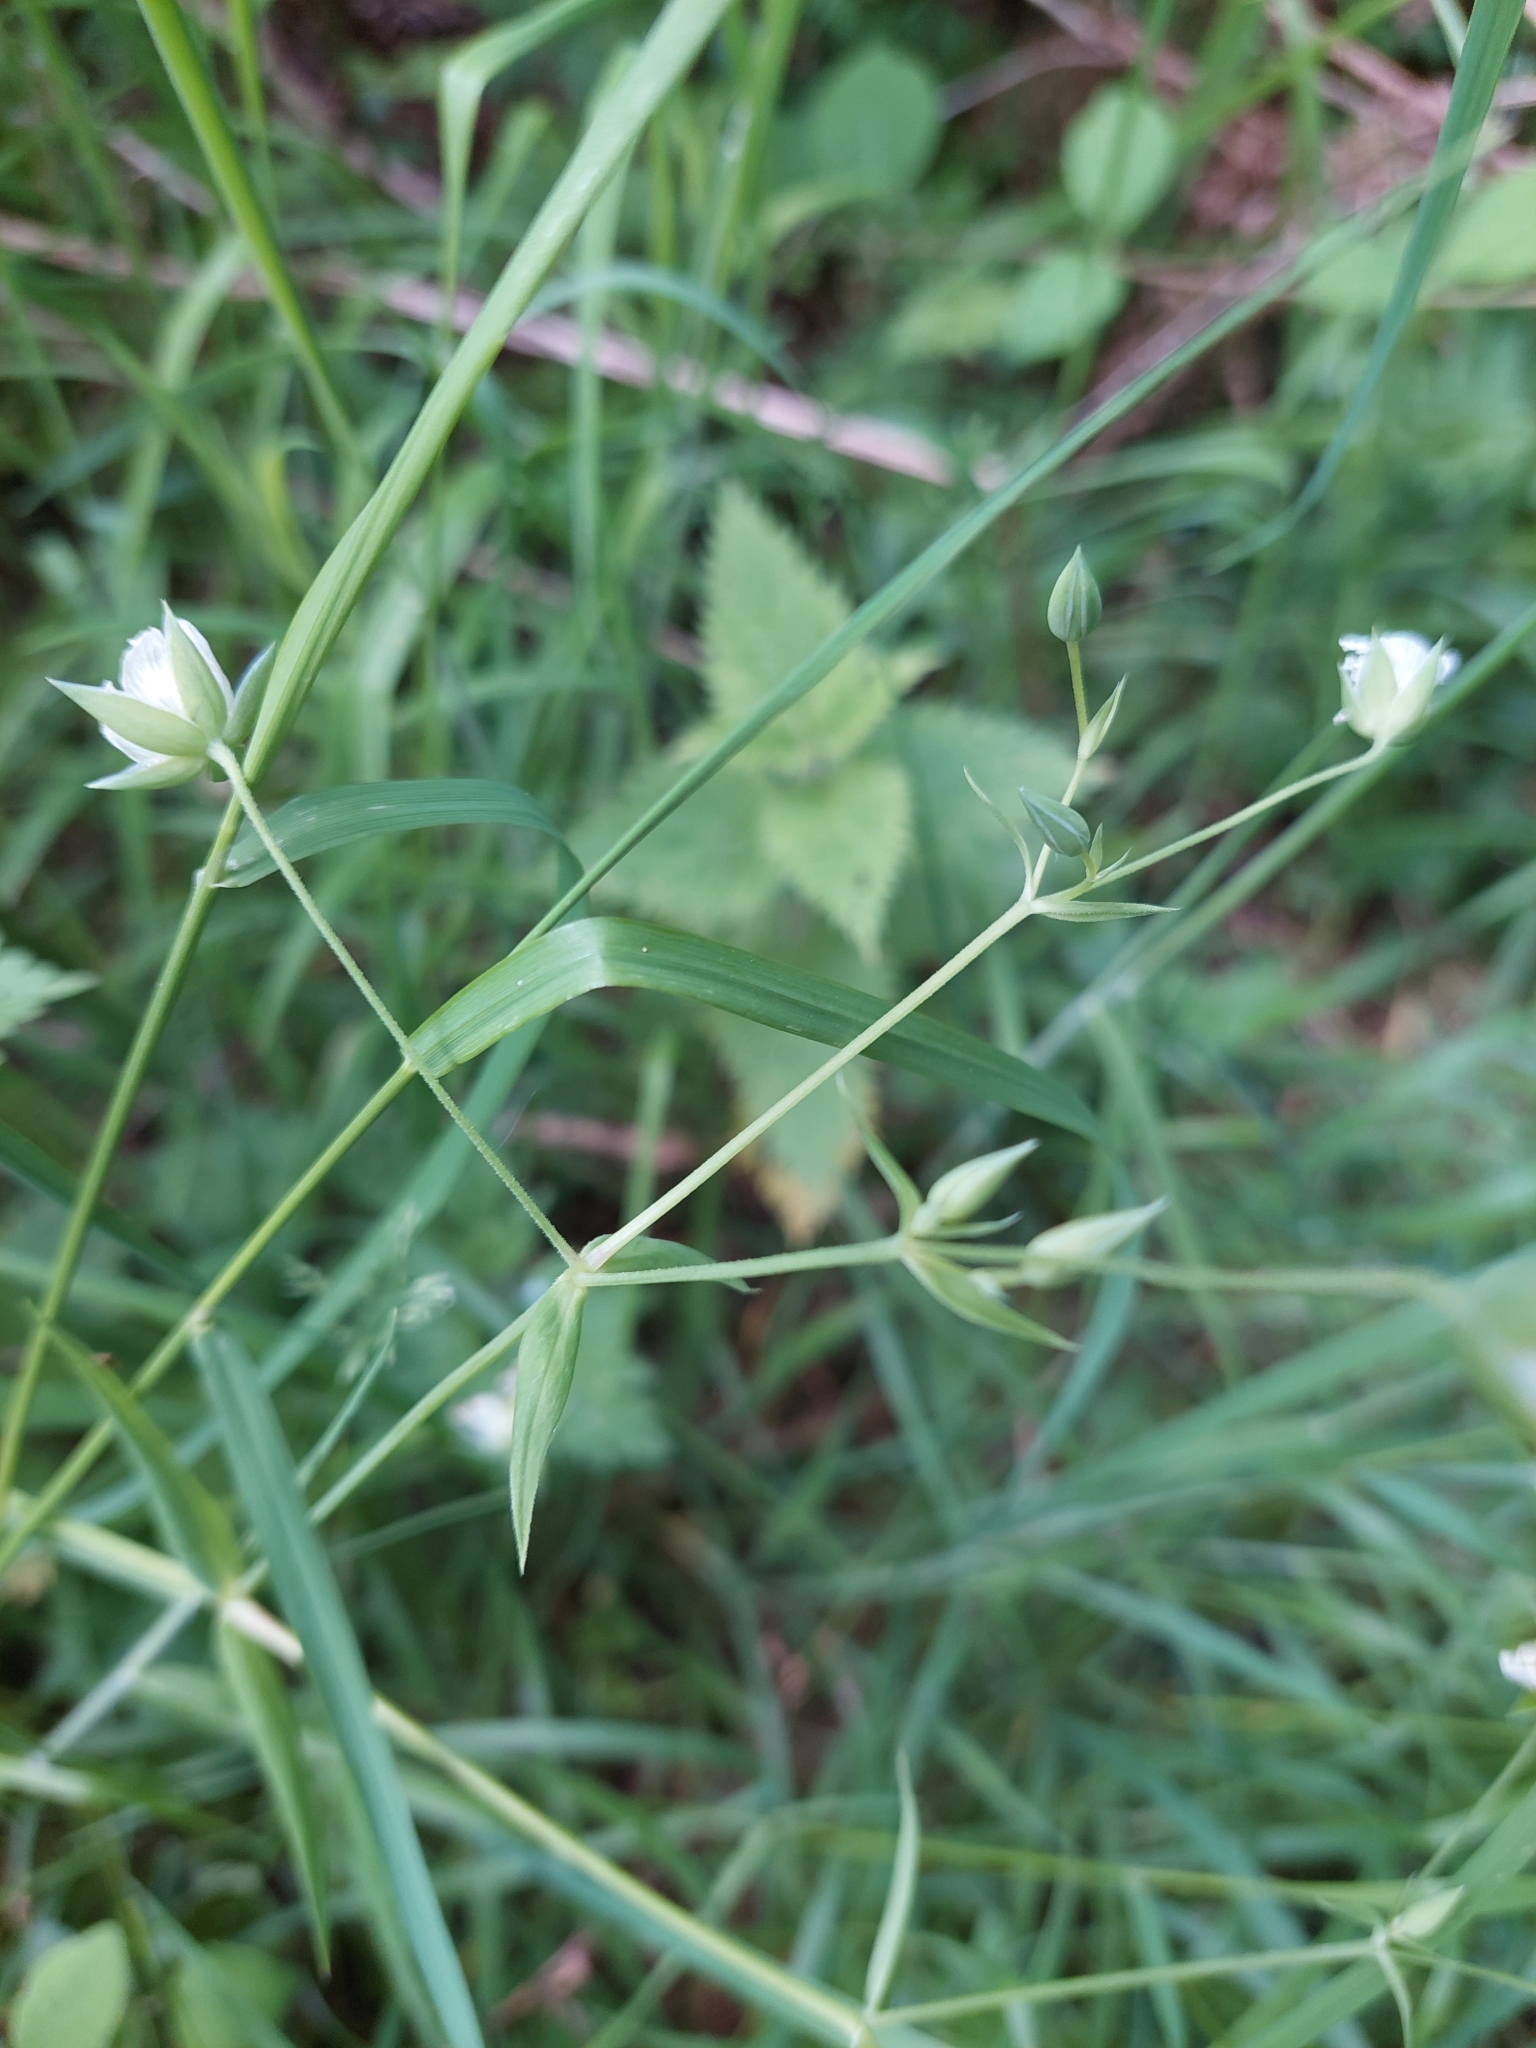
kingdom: Plantae
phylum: Tracheophyta
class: Magnoliopsida
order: Caryophyllales
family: Caryophyllaceae
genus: Rabelera
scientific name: Rabelera holostea
